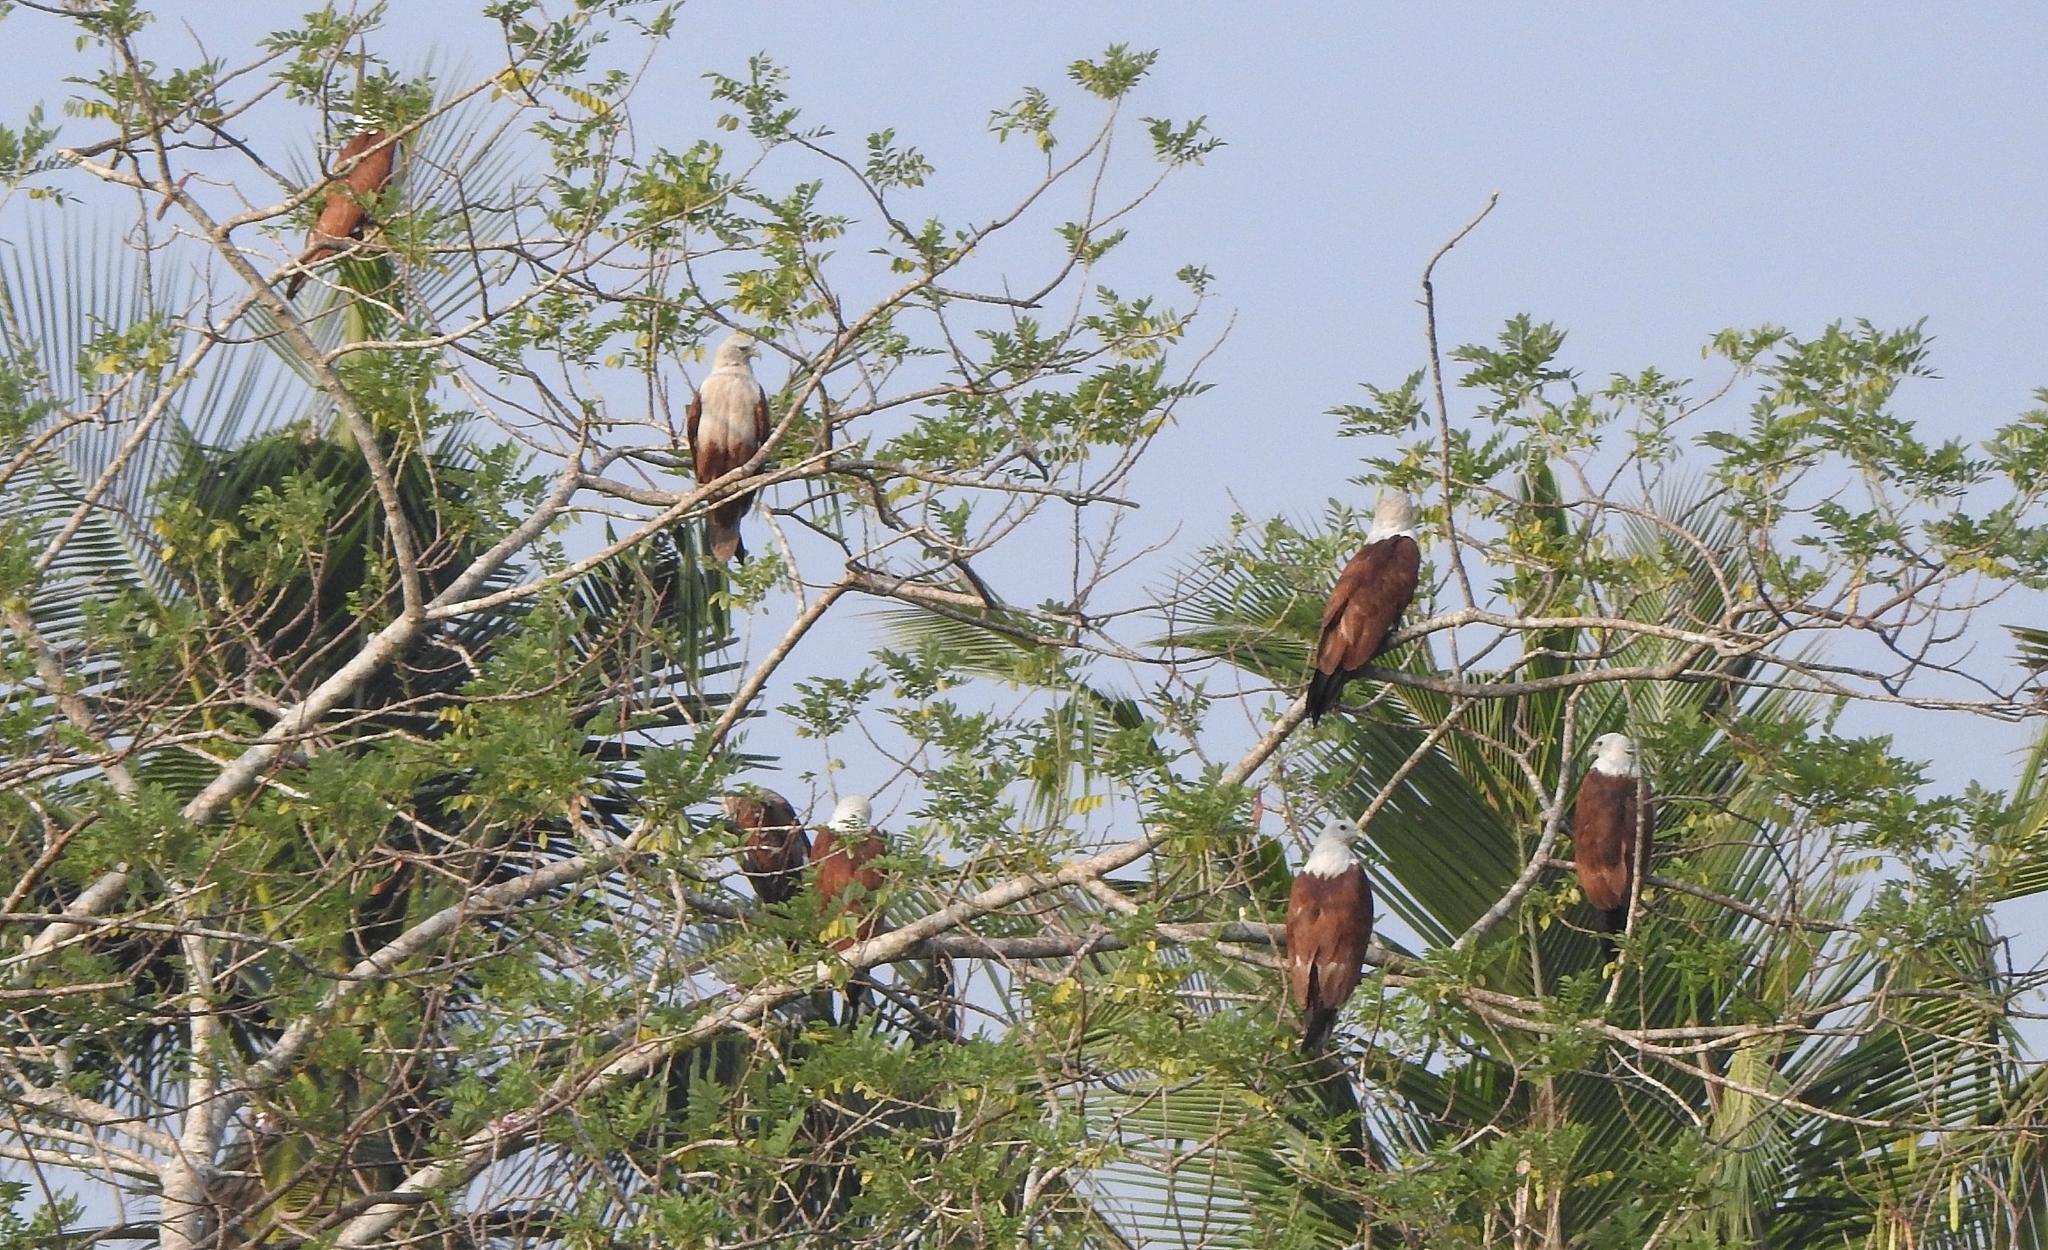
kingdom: Animalia
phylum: Chordata
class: Aves
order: Accipitriformes
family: Accipitridae
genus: Haliastur
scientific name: Haliastur indus
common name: Brahminy kite
